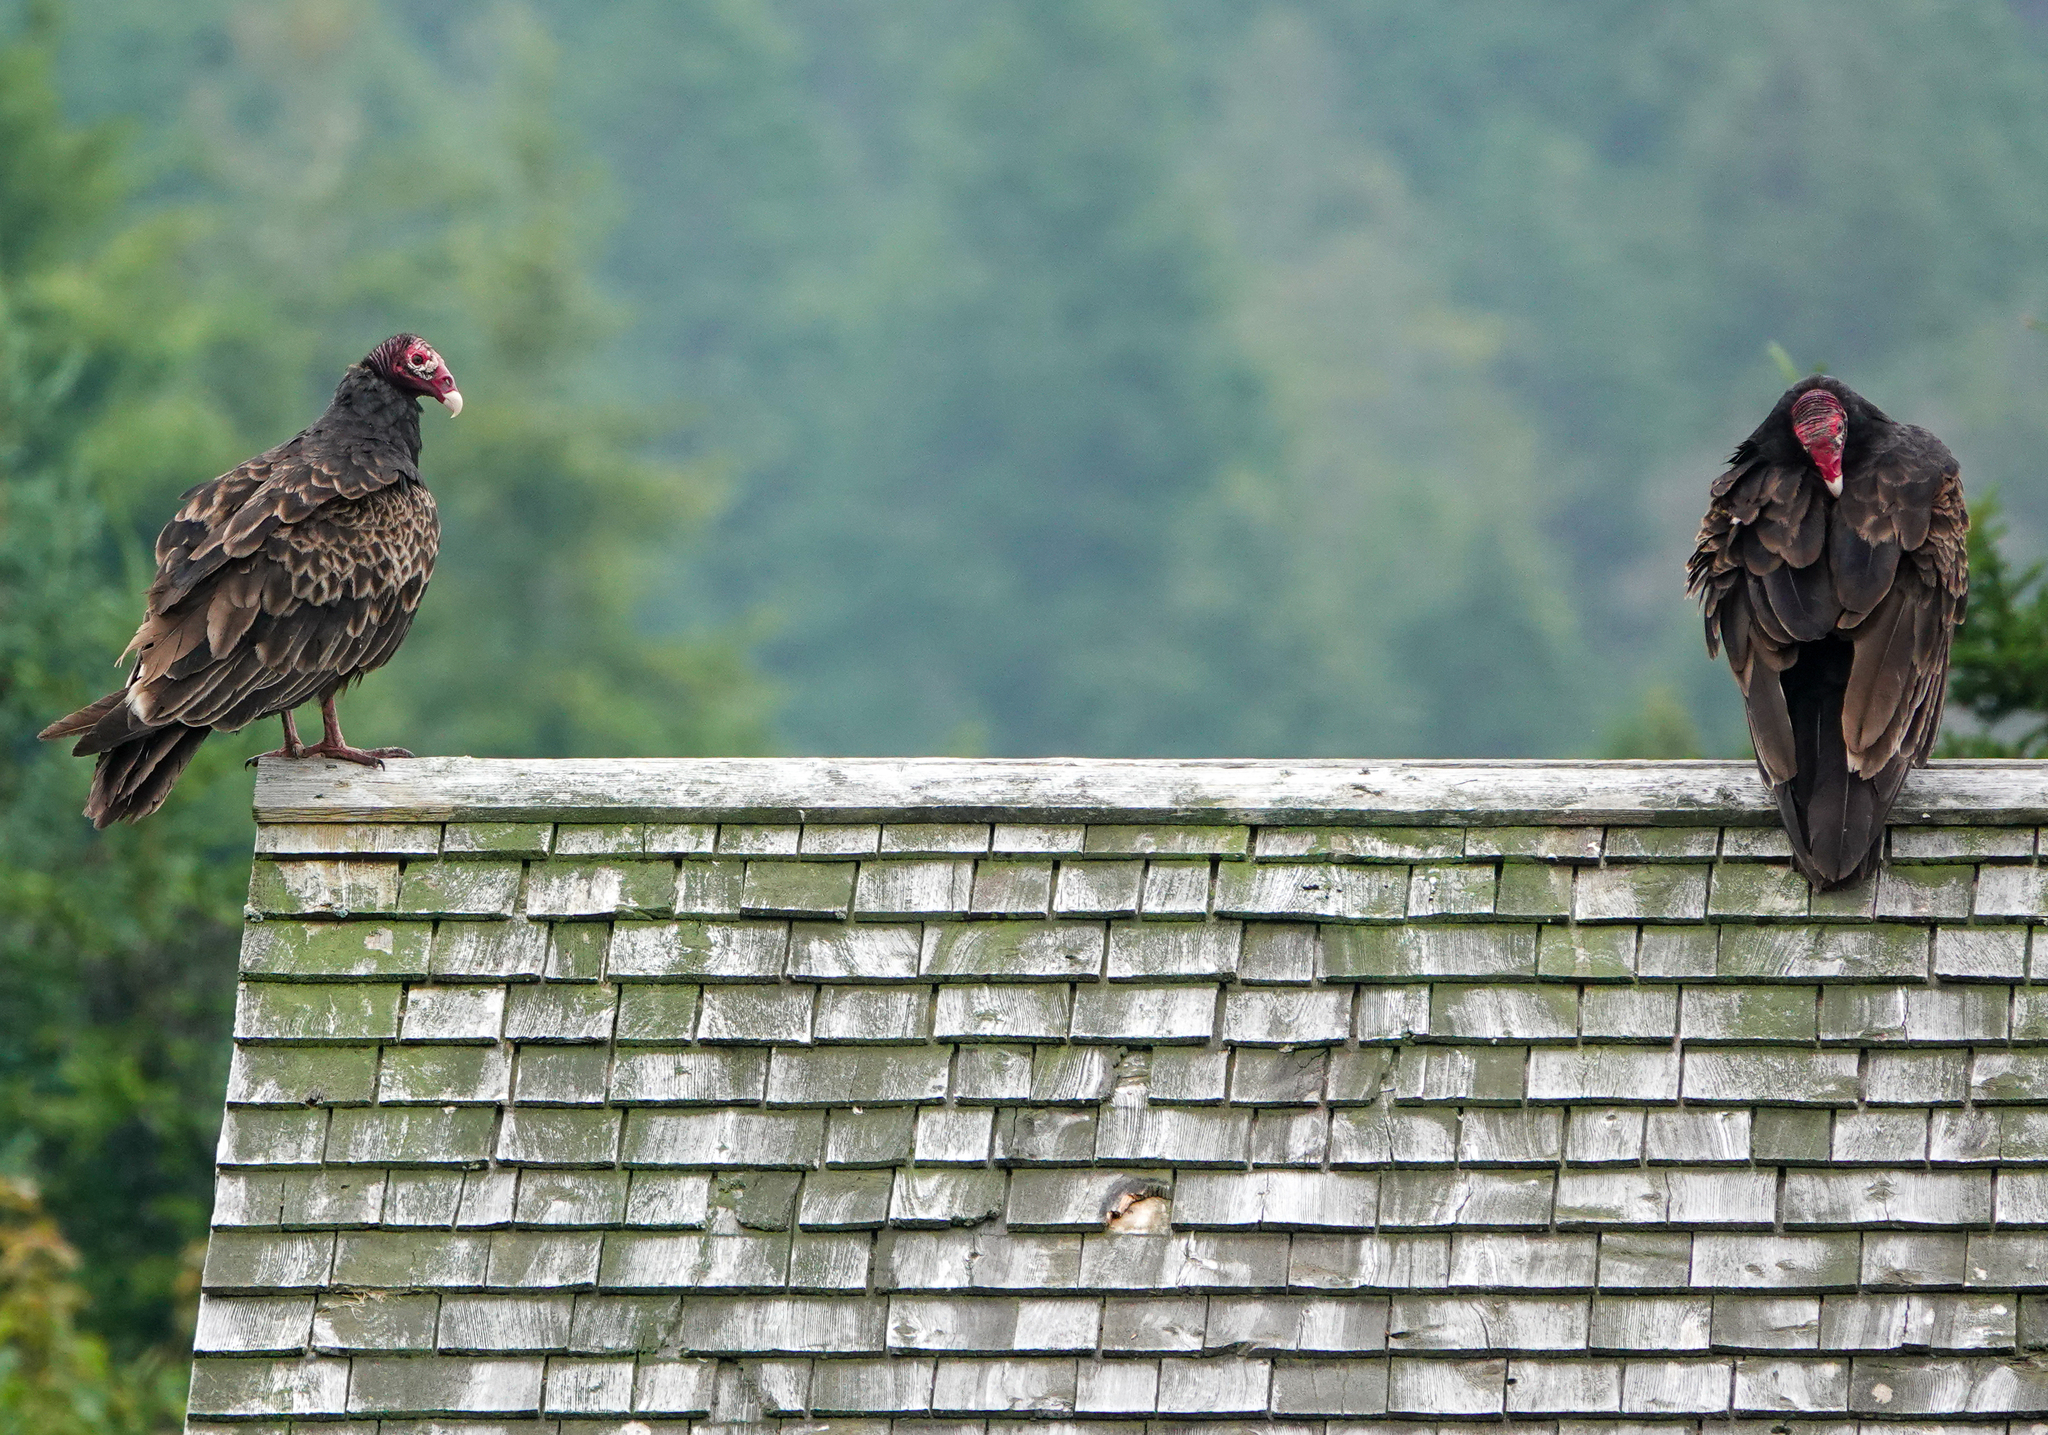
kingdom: Animalia
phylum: Chordata
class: Aves
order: Accipitriformes
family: Cathartidae
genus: Cathartes
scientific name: Cathartes aura
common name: Turkey vulture
